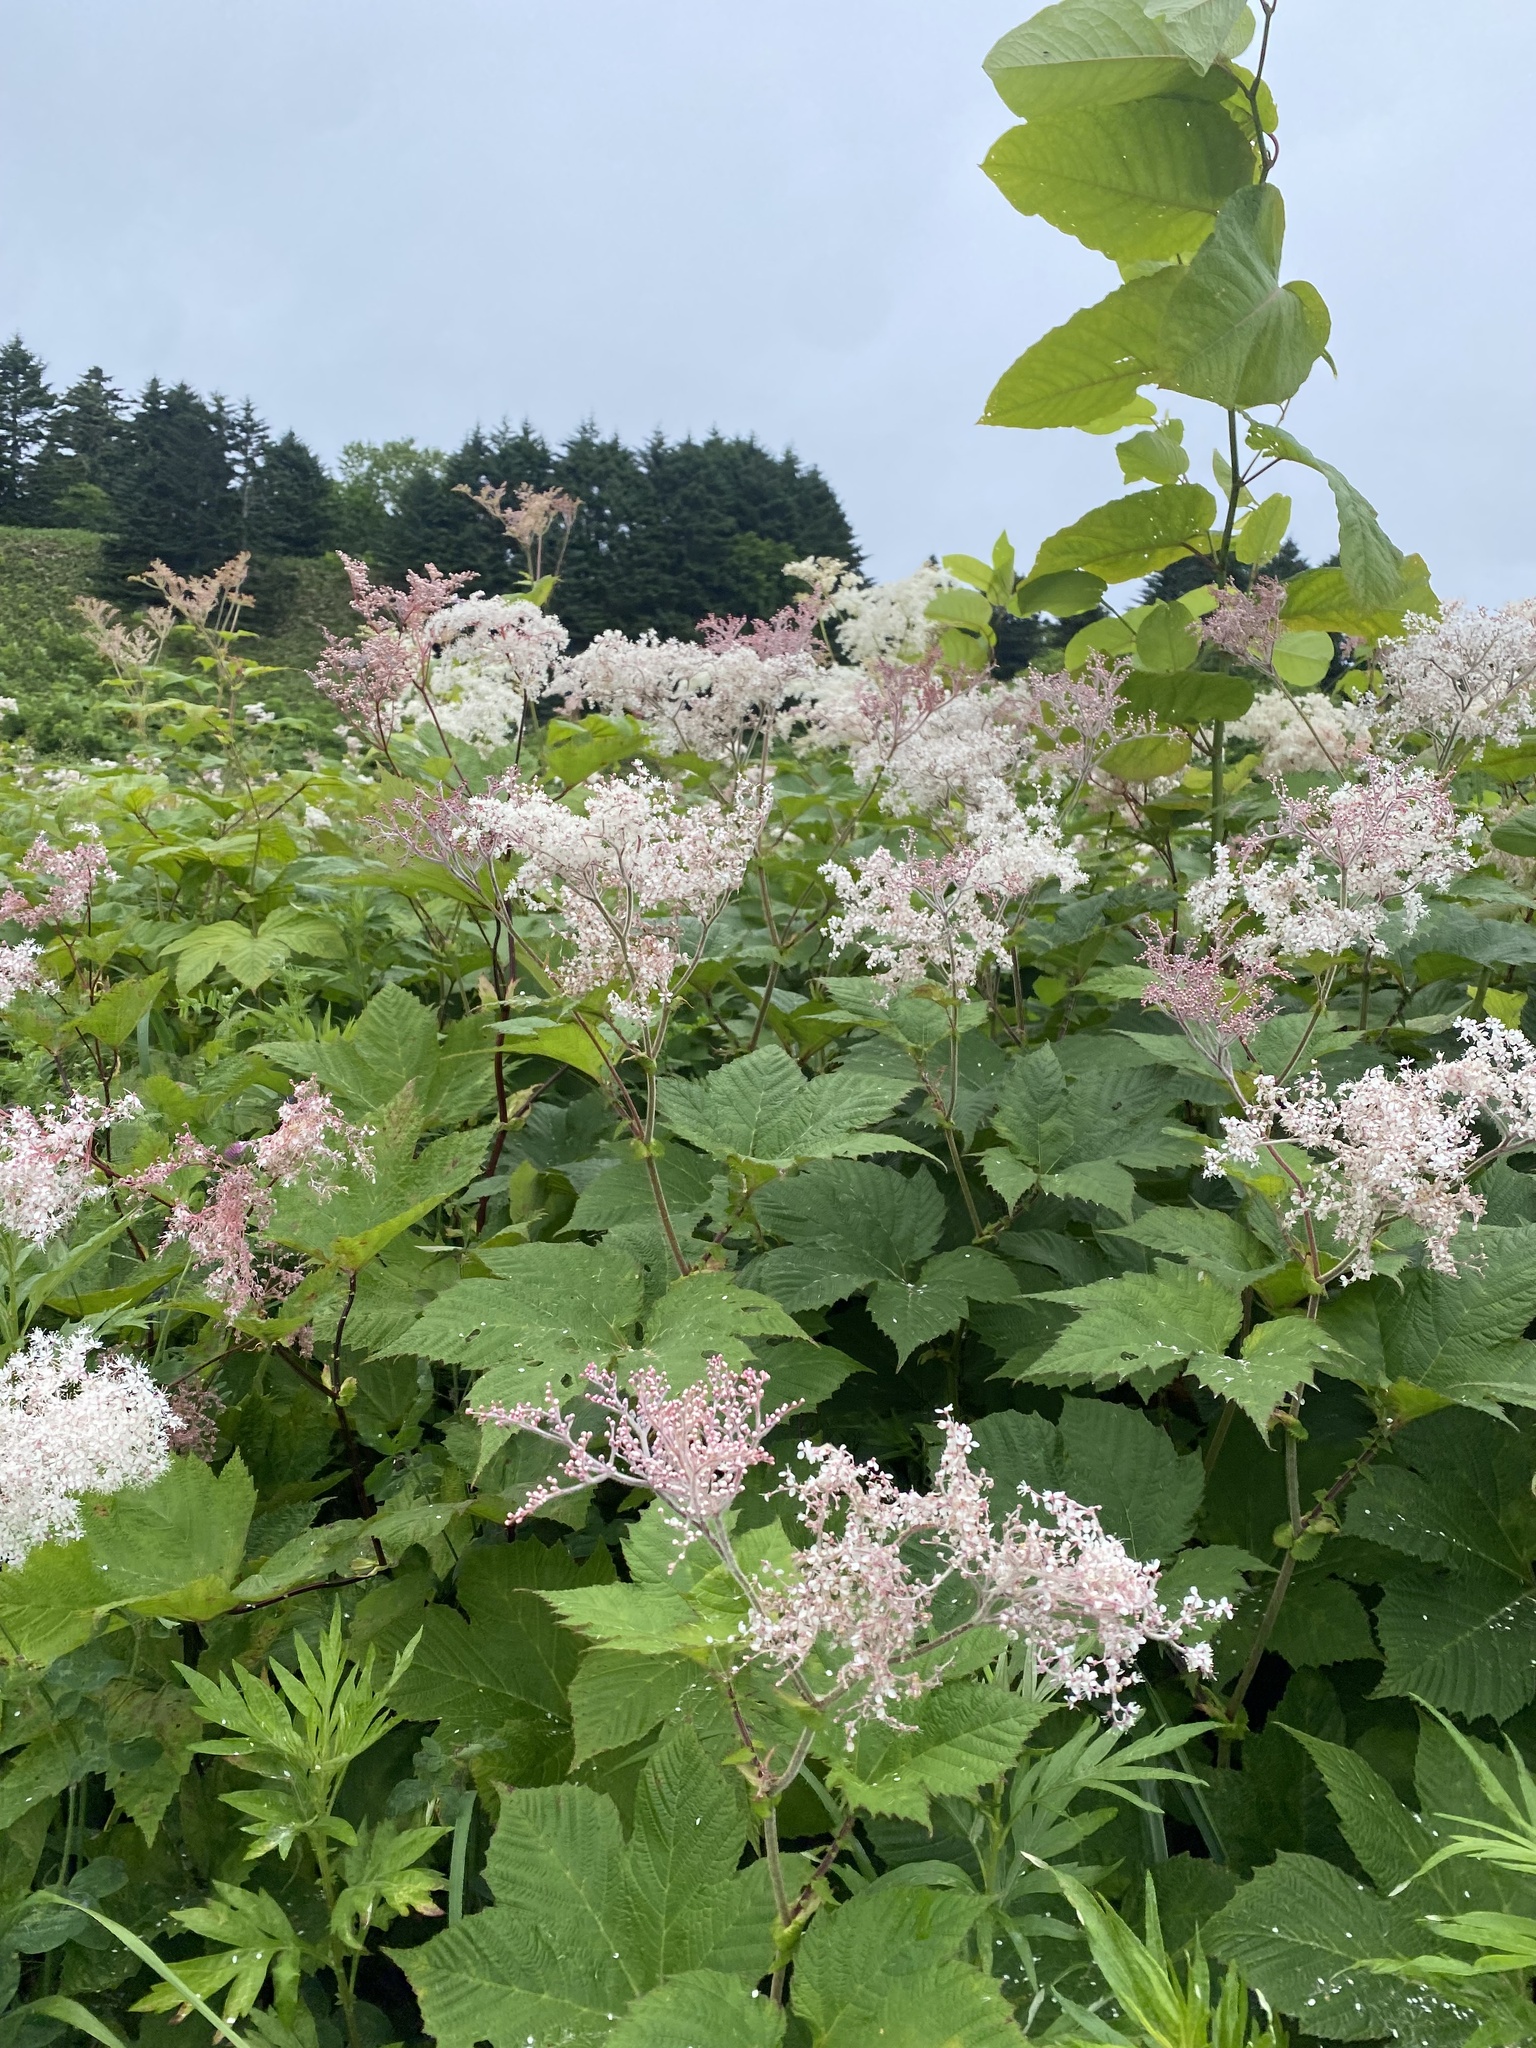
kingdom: Plantae
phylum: Tracheophyta
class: Magnoliopsida
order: Rosales
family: Rosaceae
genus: Filipendula
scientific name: Filipendula camtschatica
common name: Giant meadowsweet
